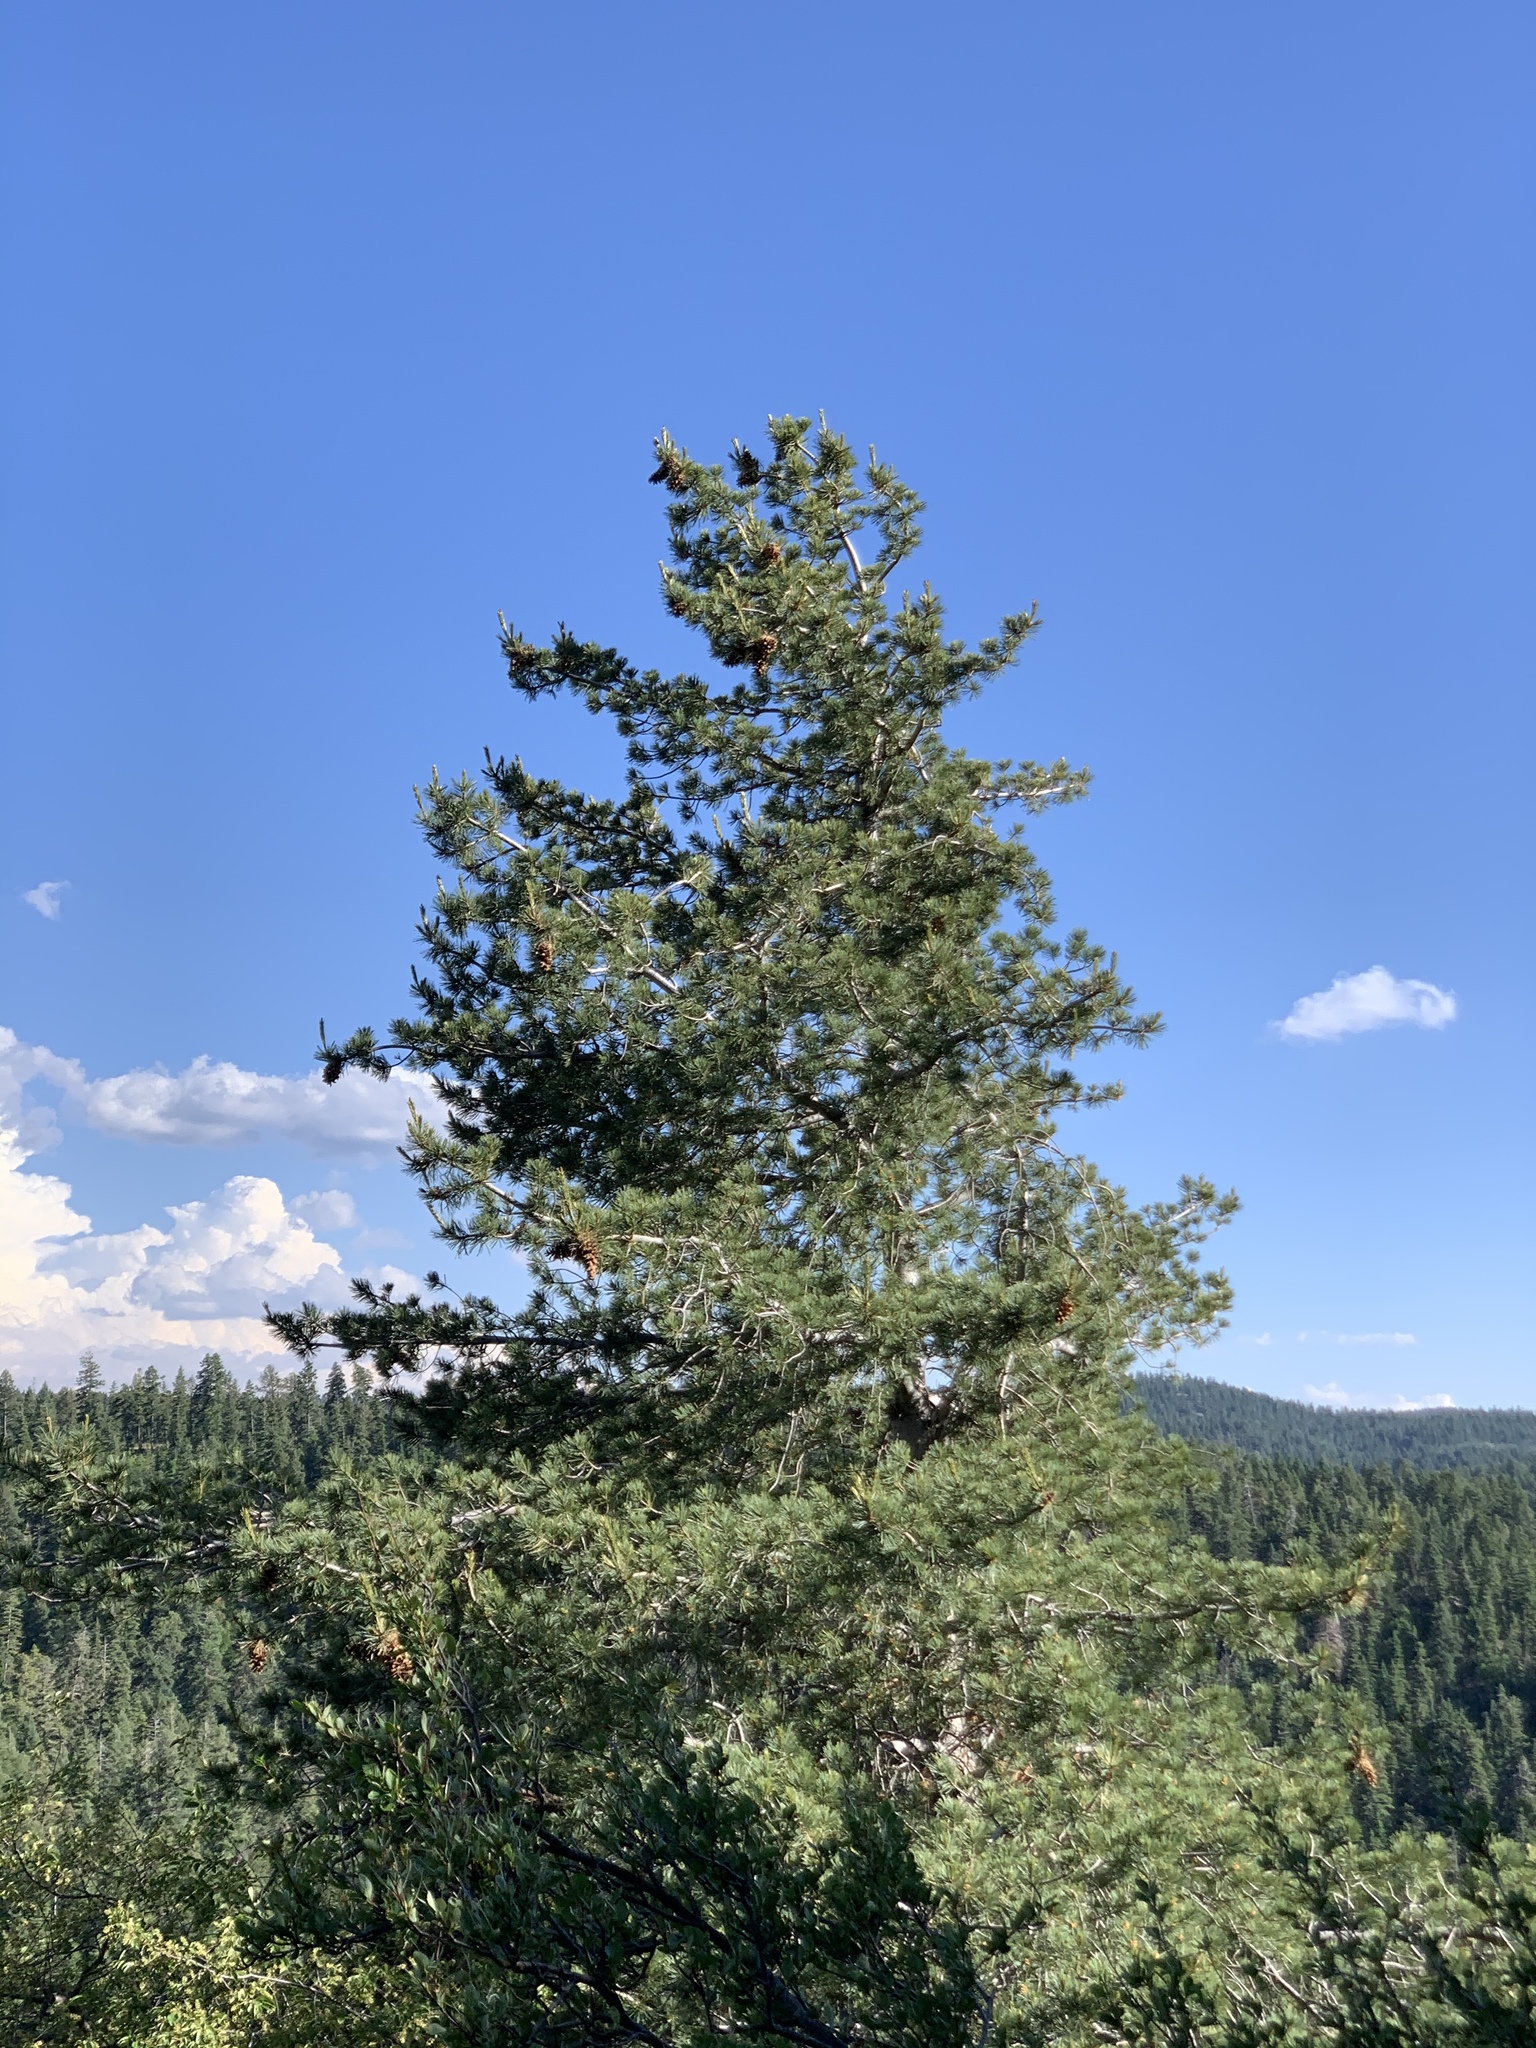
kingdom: Plantae
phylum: Tracheophyta
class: Pinopsida
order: Pinales
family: Pinaceae
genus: Pinus
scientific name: Pinus strobiformis
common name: Southwestern white pine
